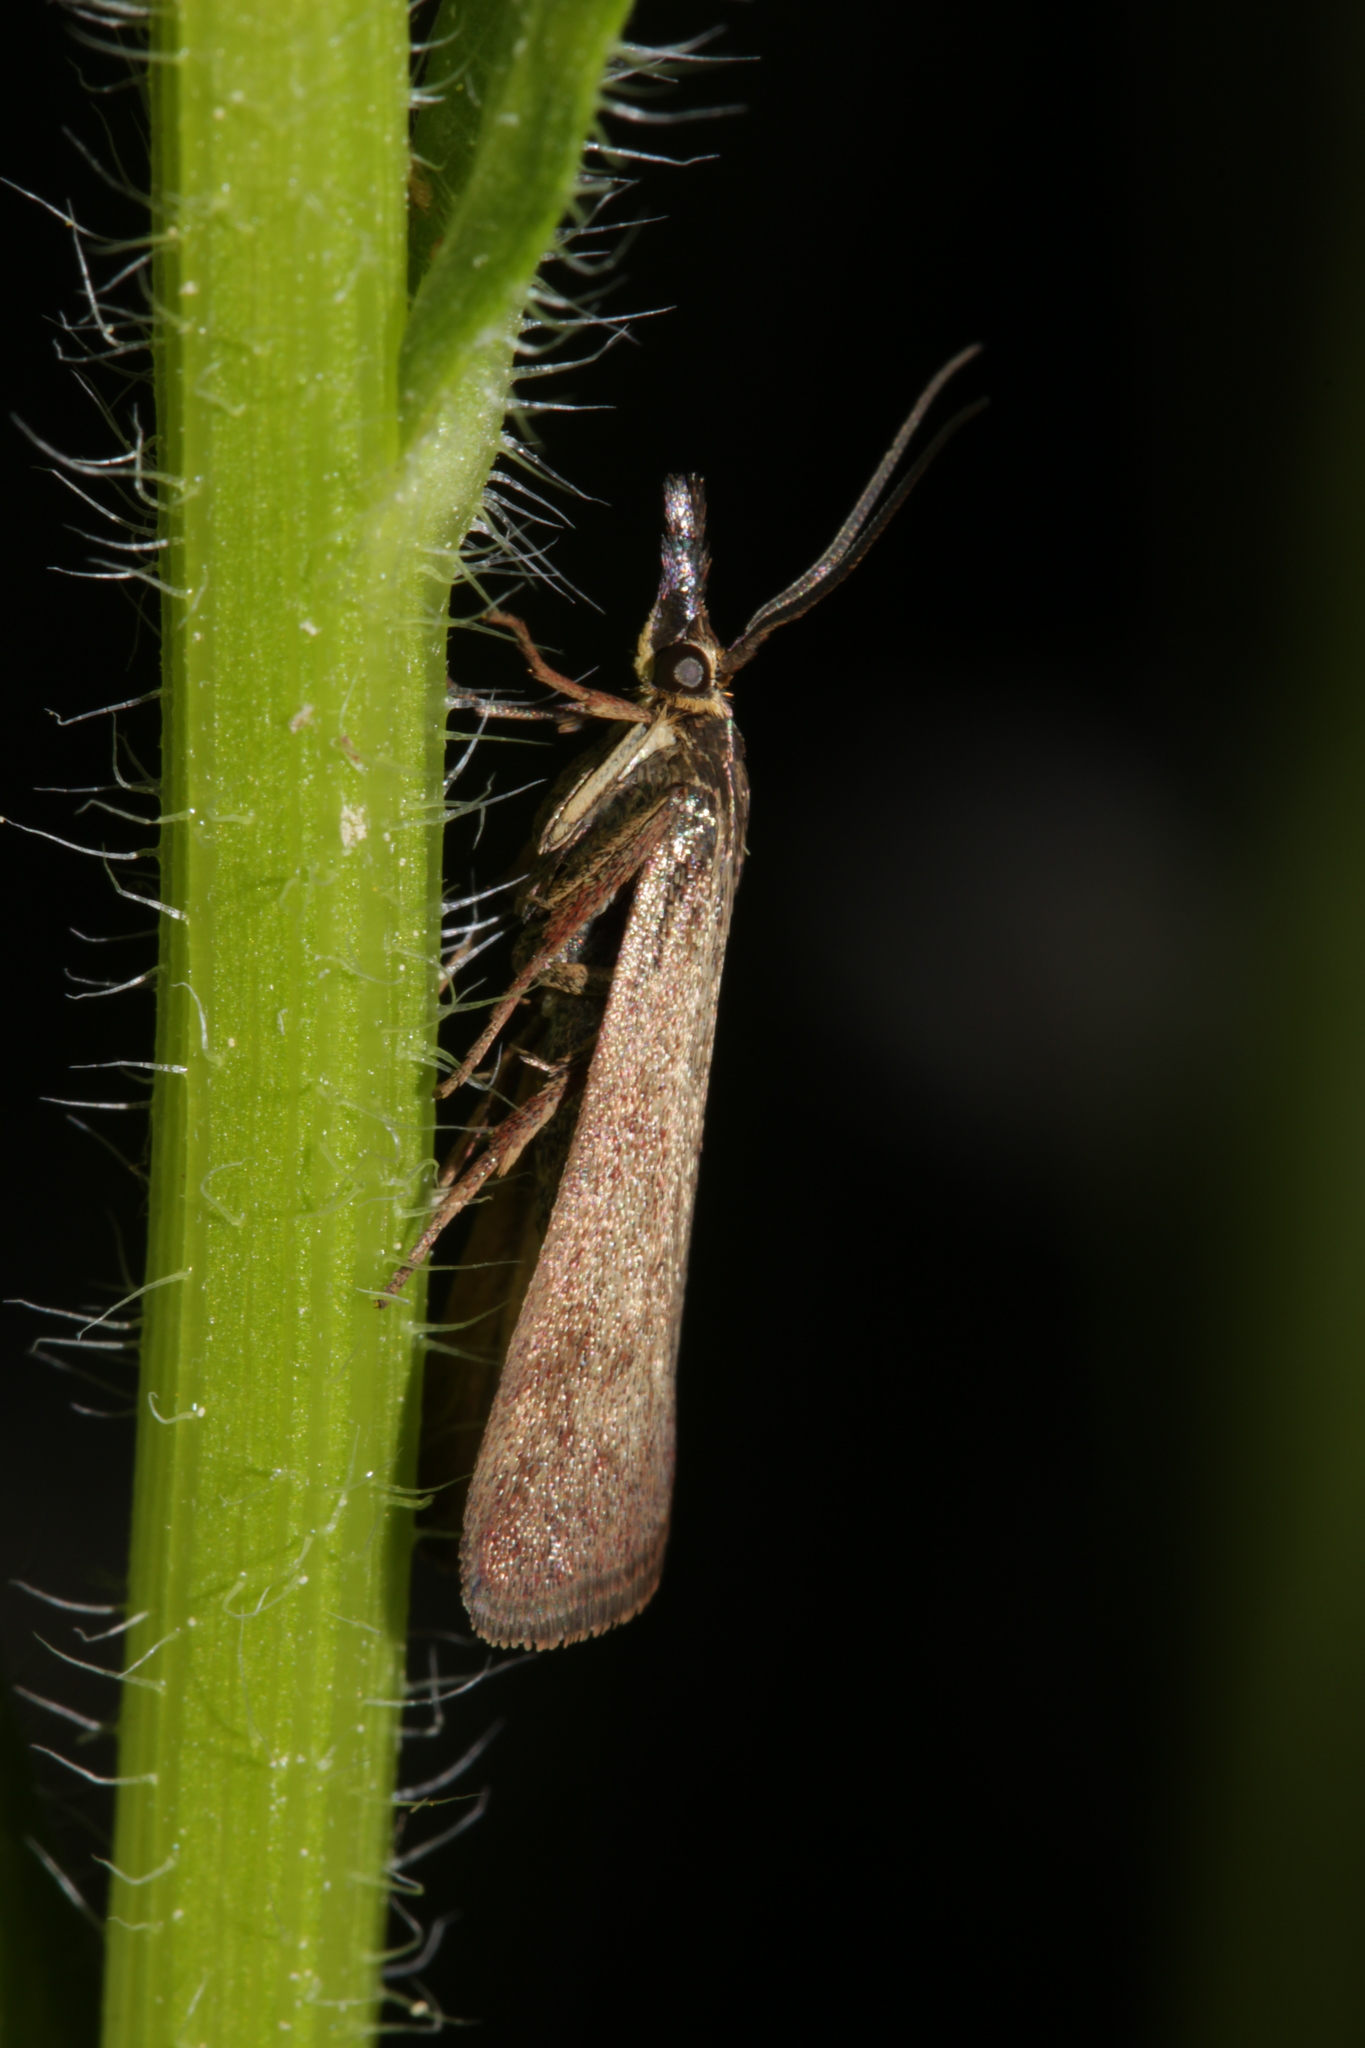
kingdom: Animalia
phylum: Arthropoda
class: Insecta
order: Lepidoptera
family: Pyralidae
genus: Hypochalcia
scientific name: Hypochalcia ahenella
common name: Dingy knot-horn
